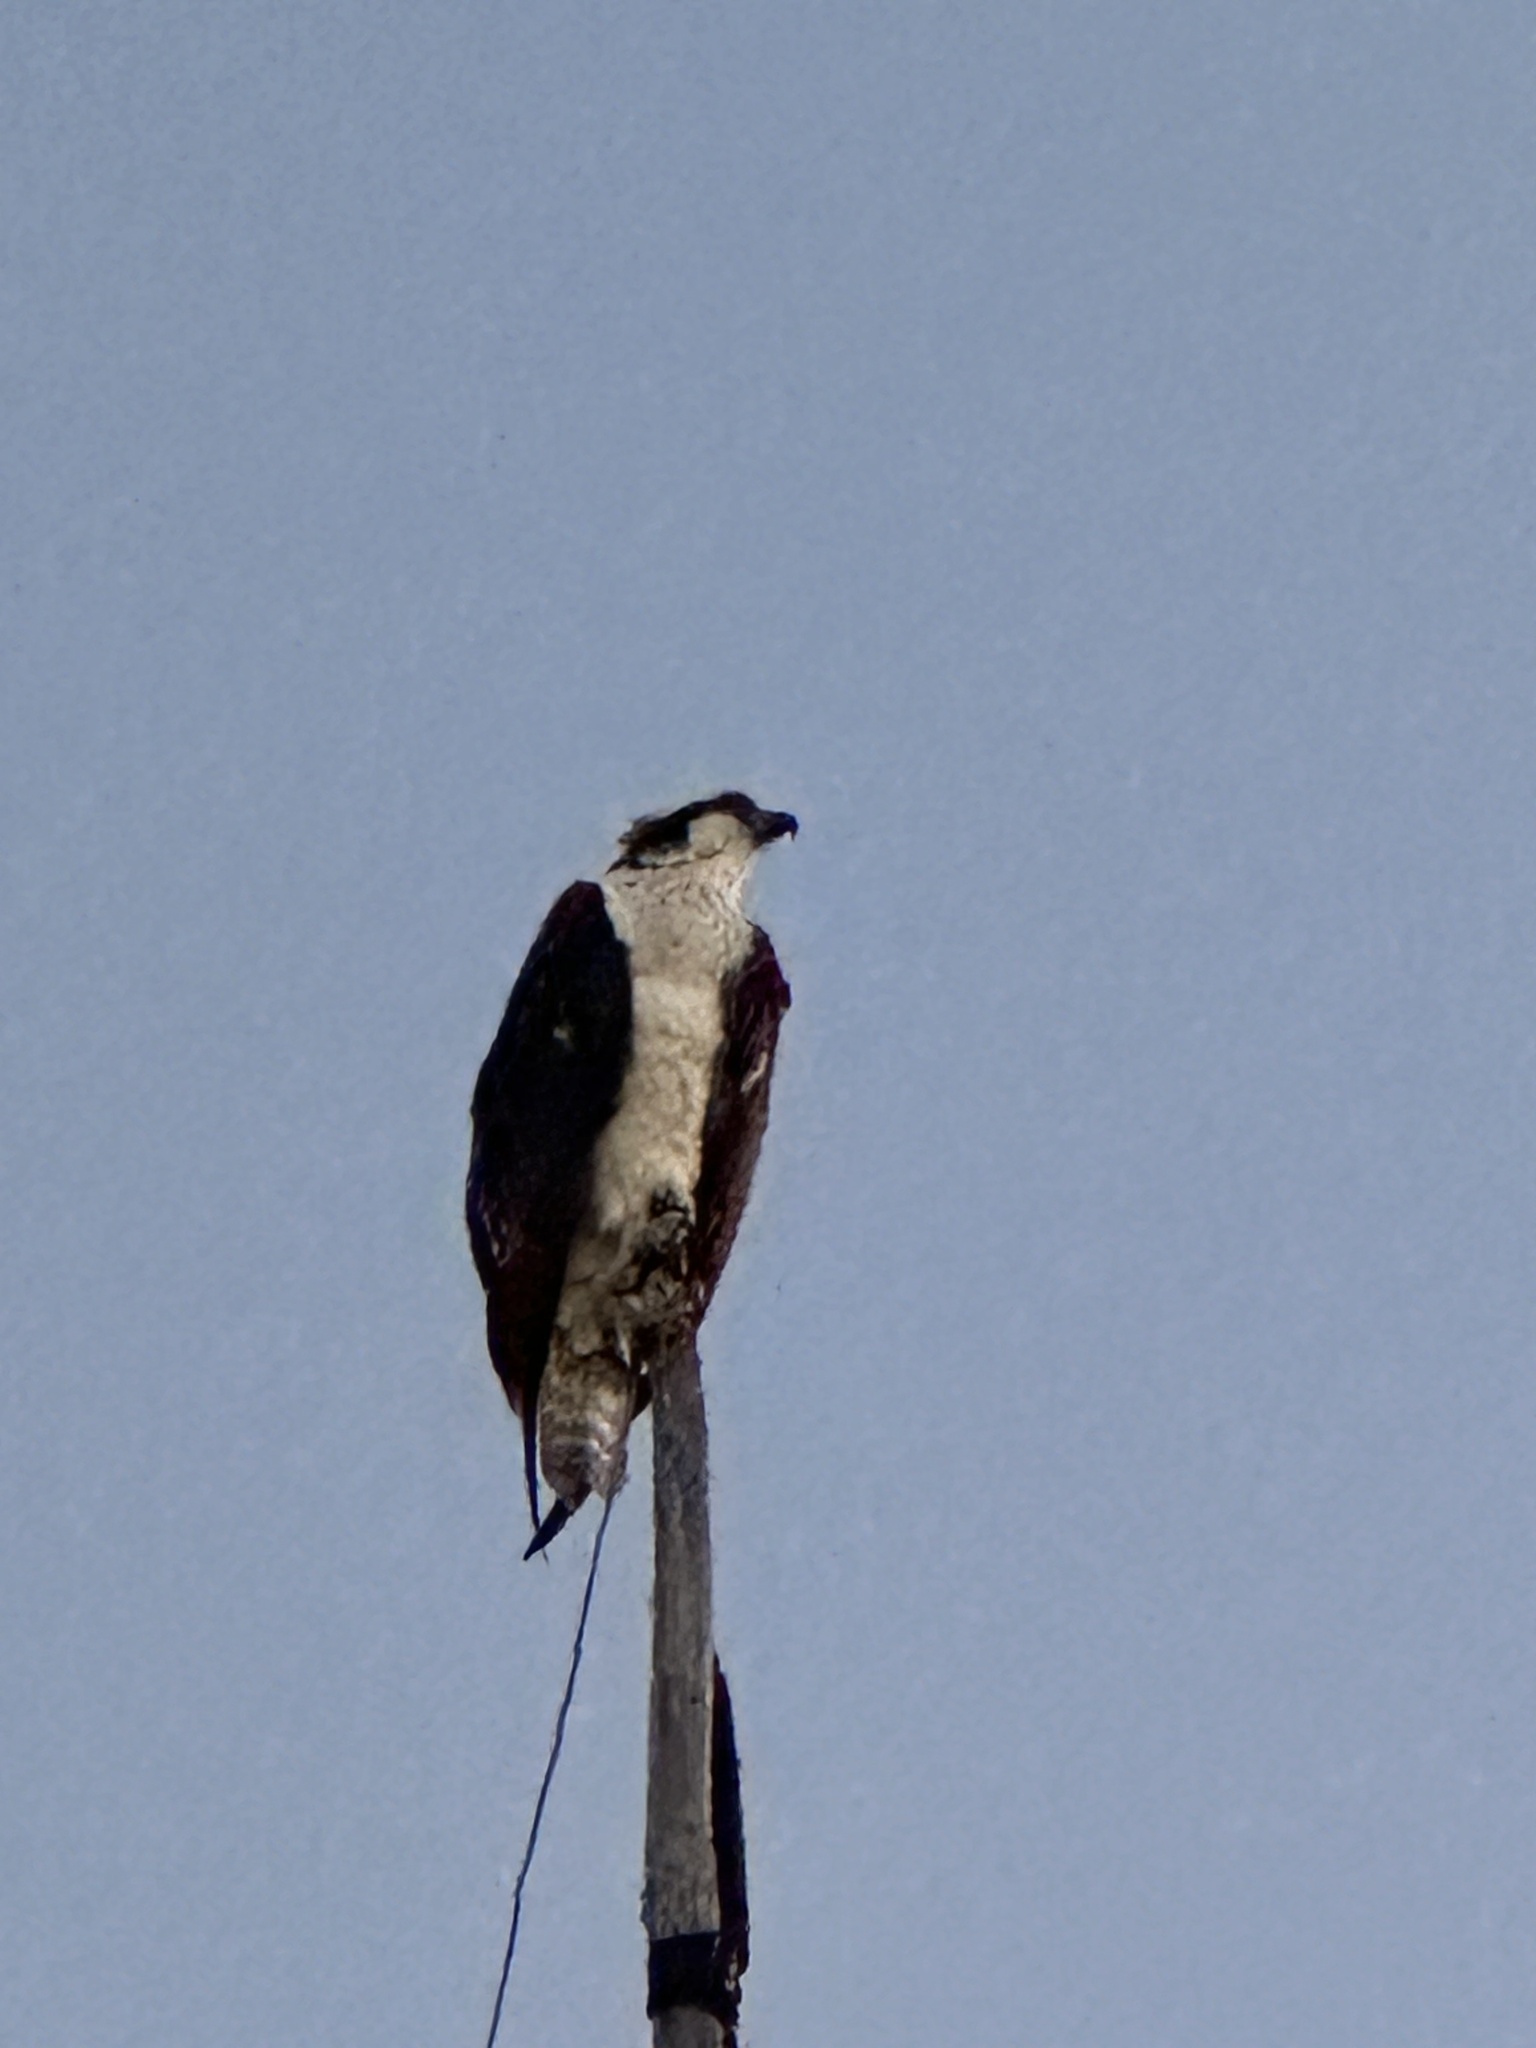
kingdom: Animalia
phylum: Chordata
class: Aves
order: Accipitriformes
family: Pandionidae
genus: Pandion
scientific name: Pandion haliaetus
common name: Osprey
